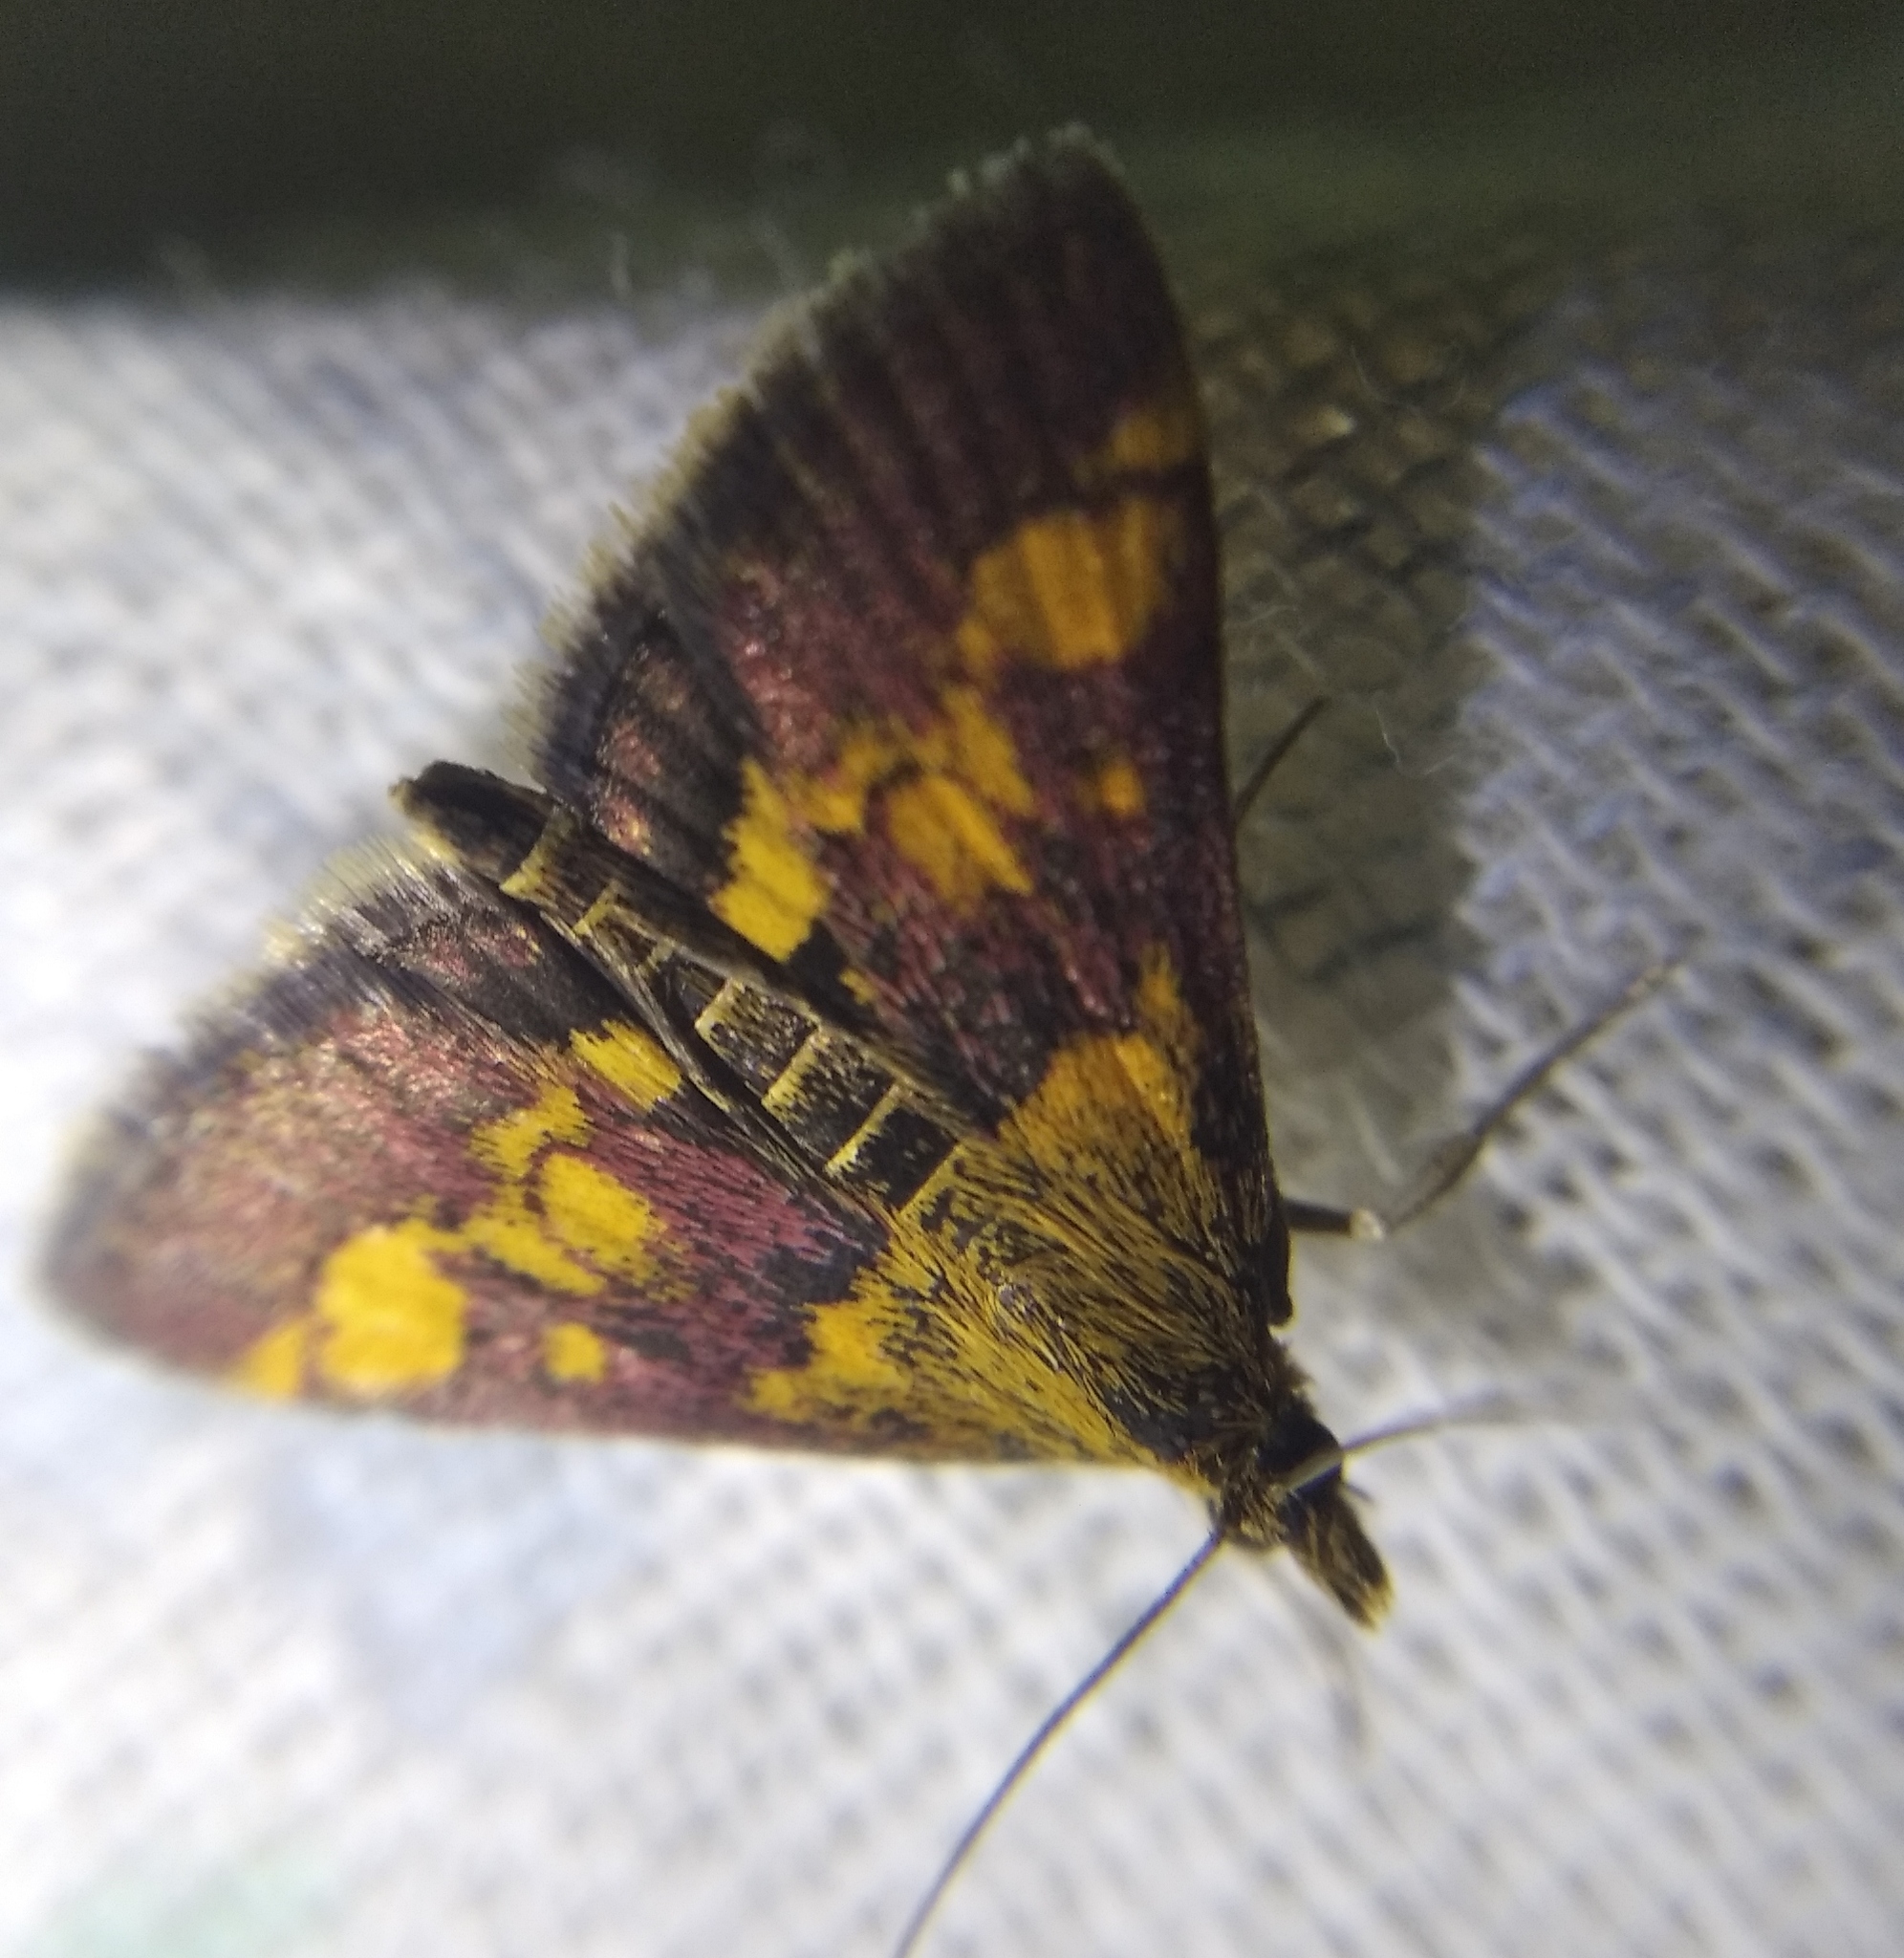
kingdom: Animalia
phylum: Arthropoda
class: Insecta
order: Lepidoptera
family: Crambidae
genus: Pyrausta
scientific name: Pyrausta aurata
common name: Small purple & gold
